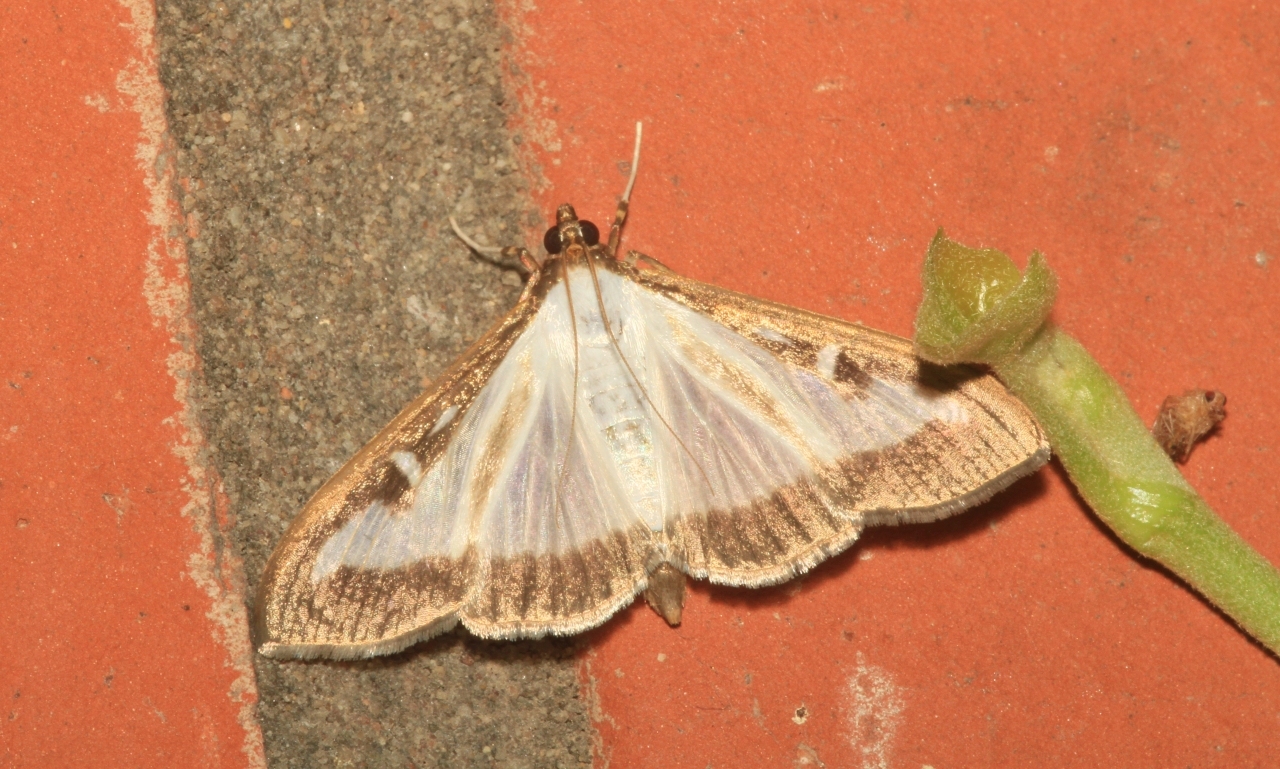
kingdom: Animalia
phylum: Arthropoda
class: Insecta
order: Lepidoptera
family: Crambidae
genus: Cydalima
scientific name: Cydalima perspectalis
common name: Box tree moth
